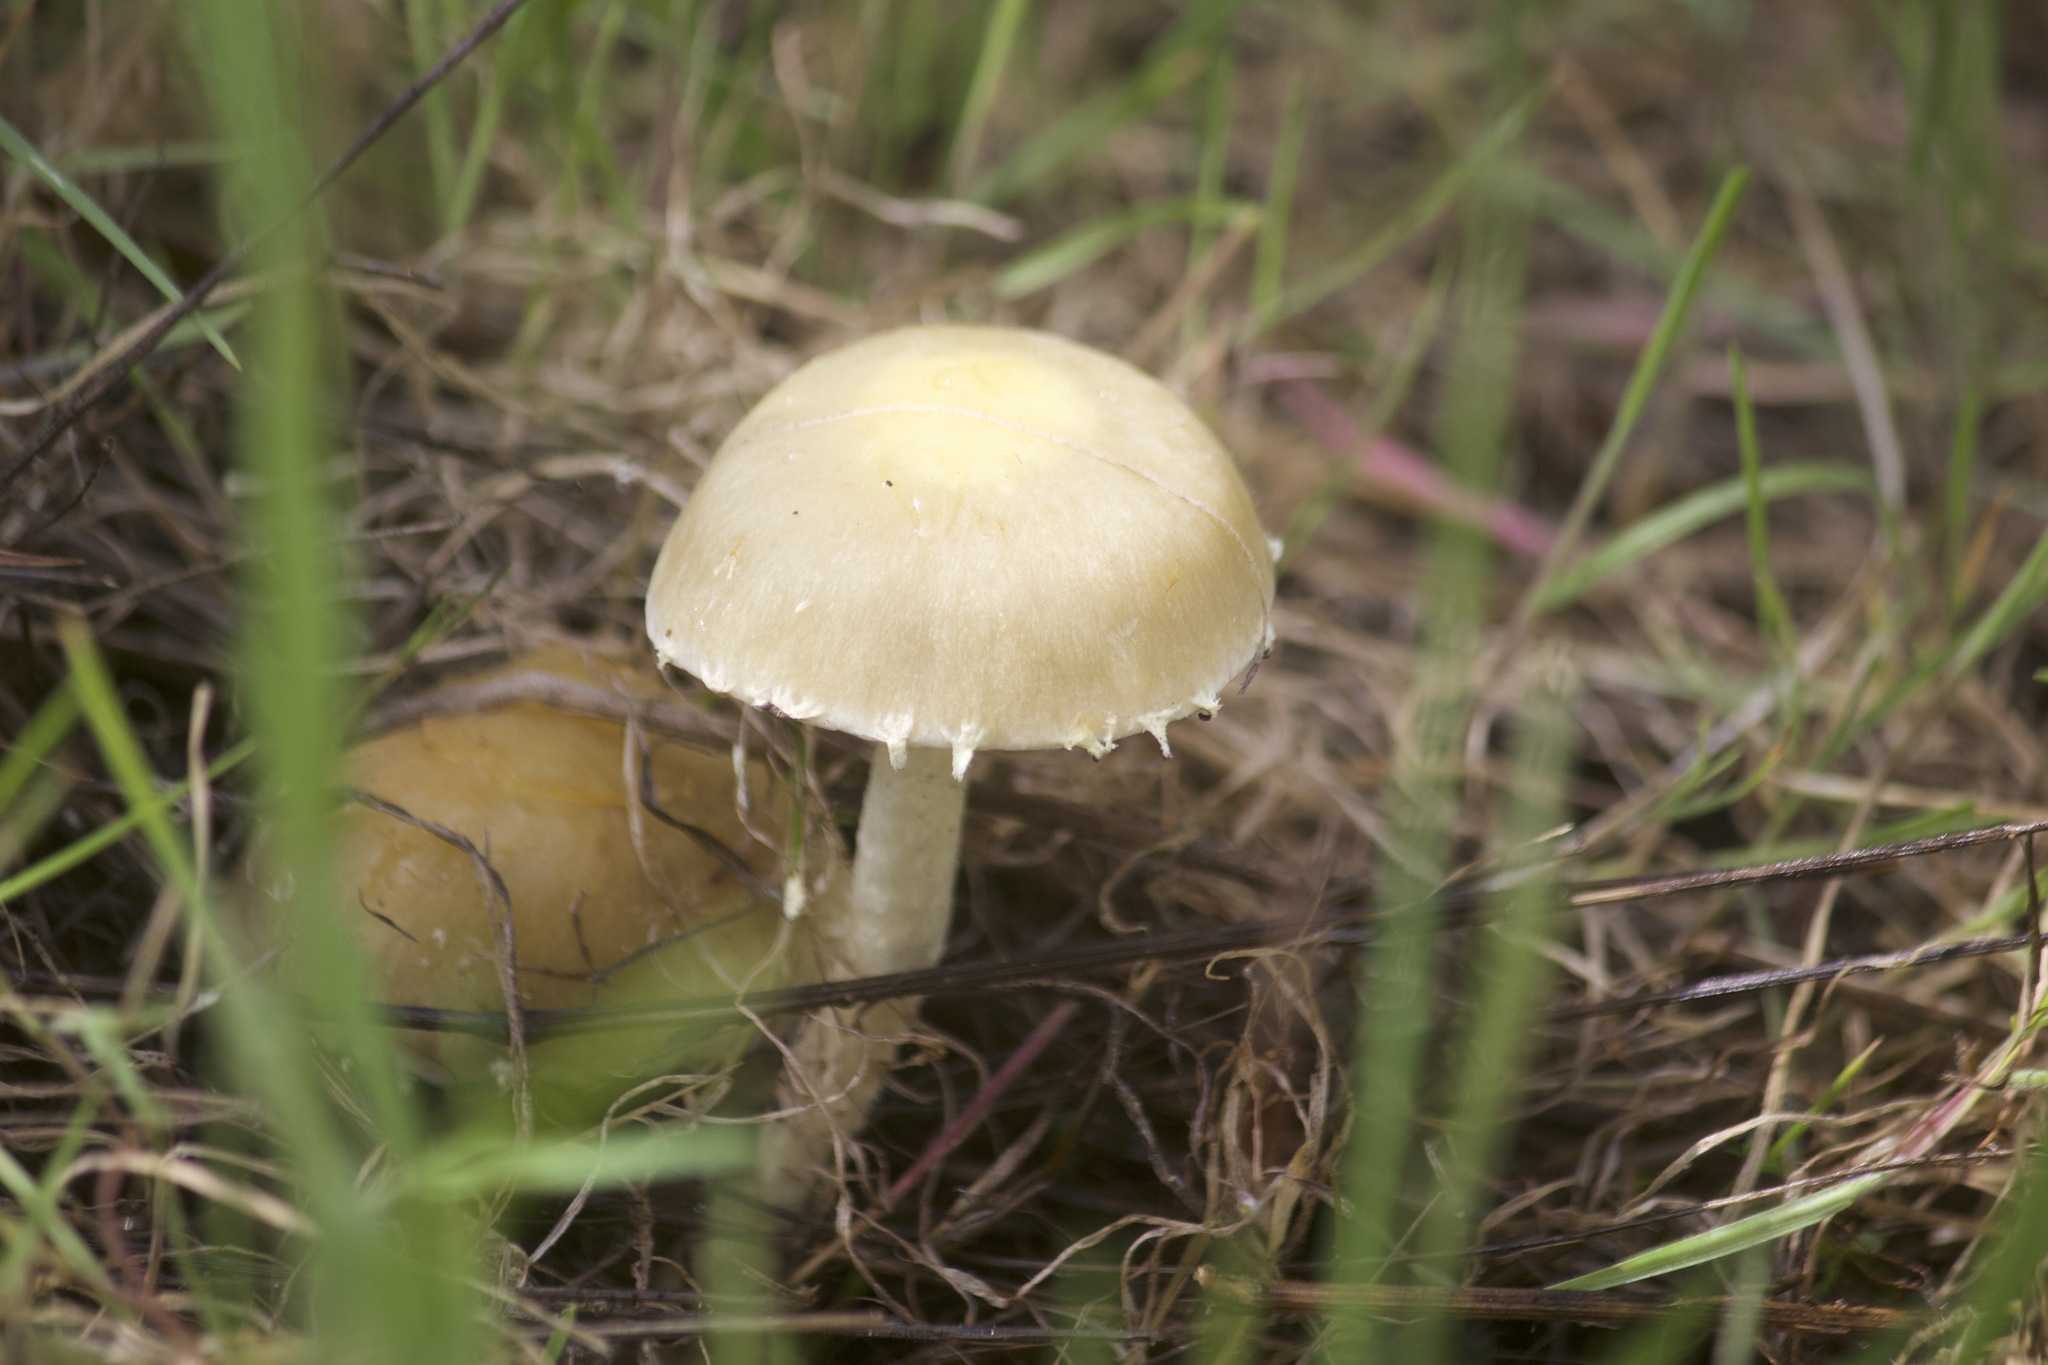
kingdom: Fungi
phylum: Basidiomycota
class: Agaricomycetes
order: Agaricales
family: Strophariaceae
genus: Leratiomyces
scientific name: Leratiomyces percevalii
